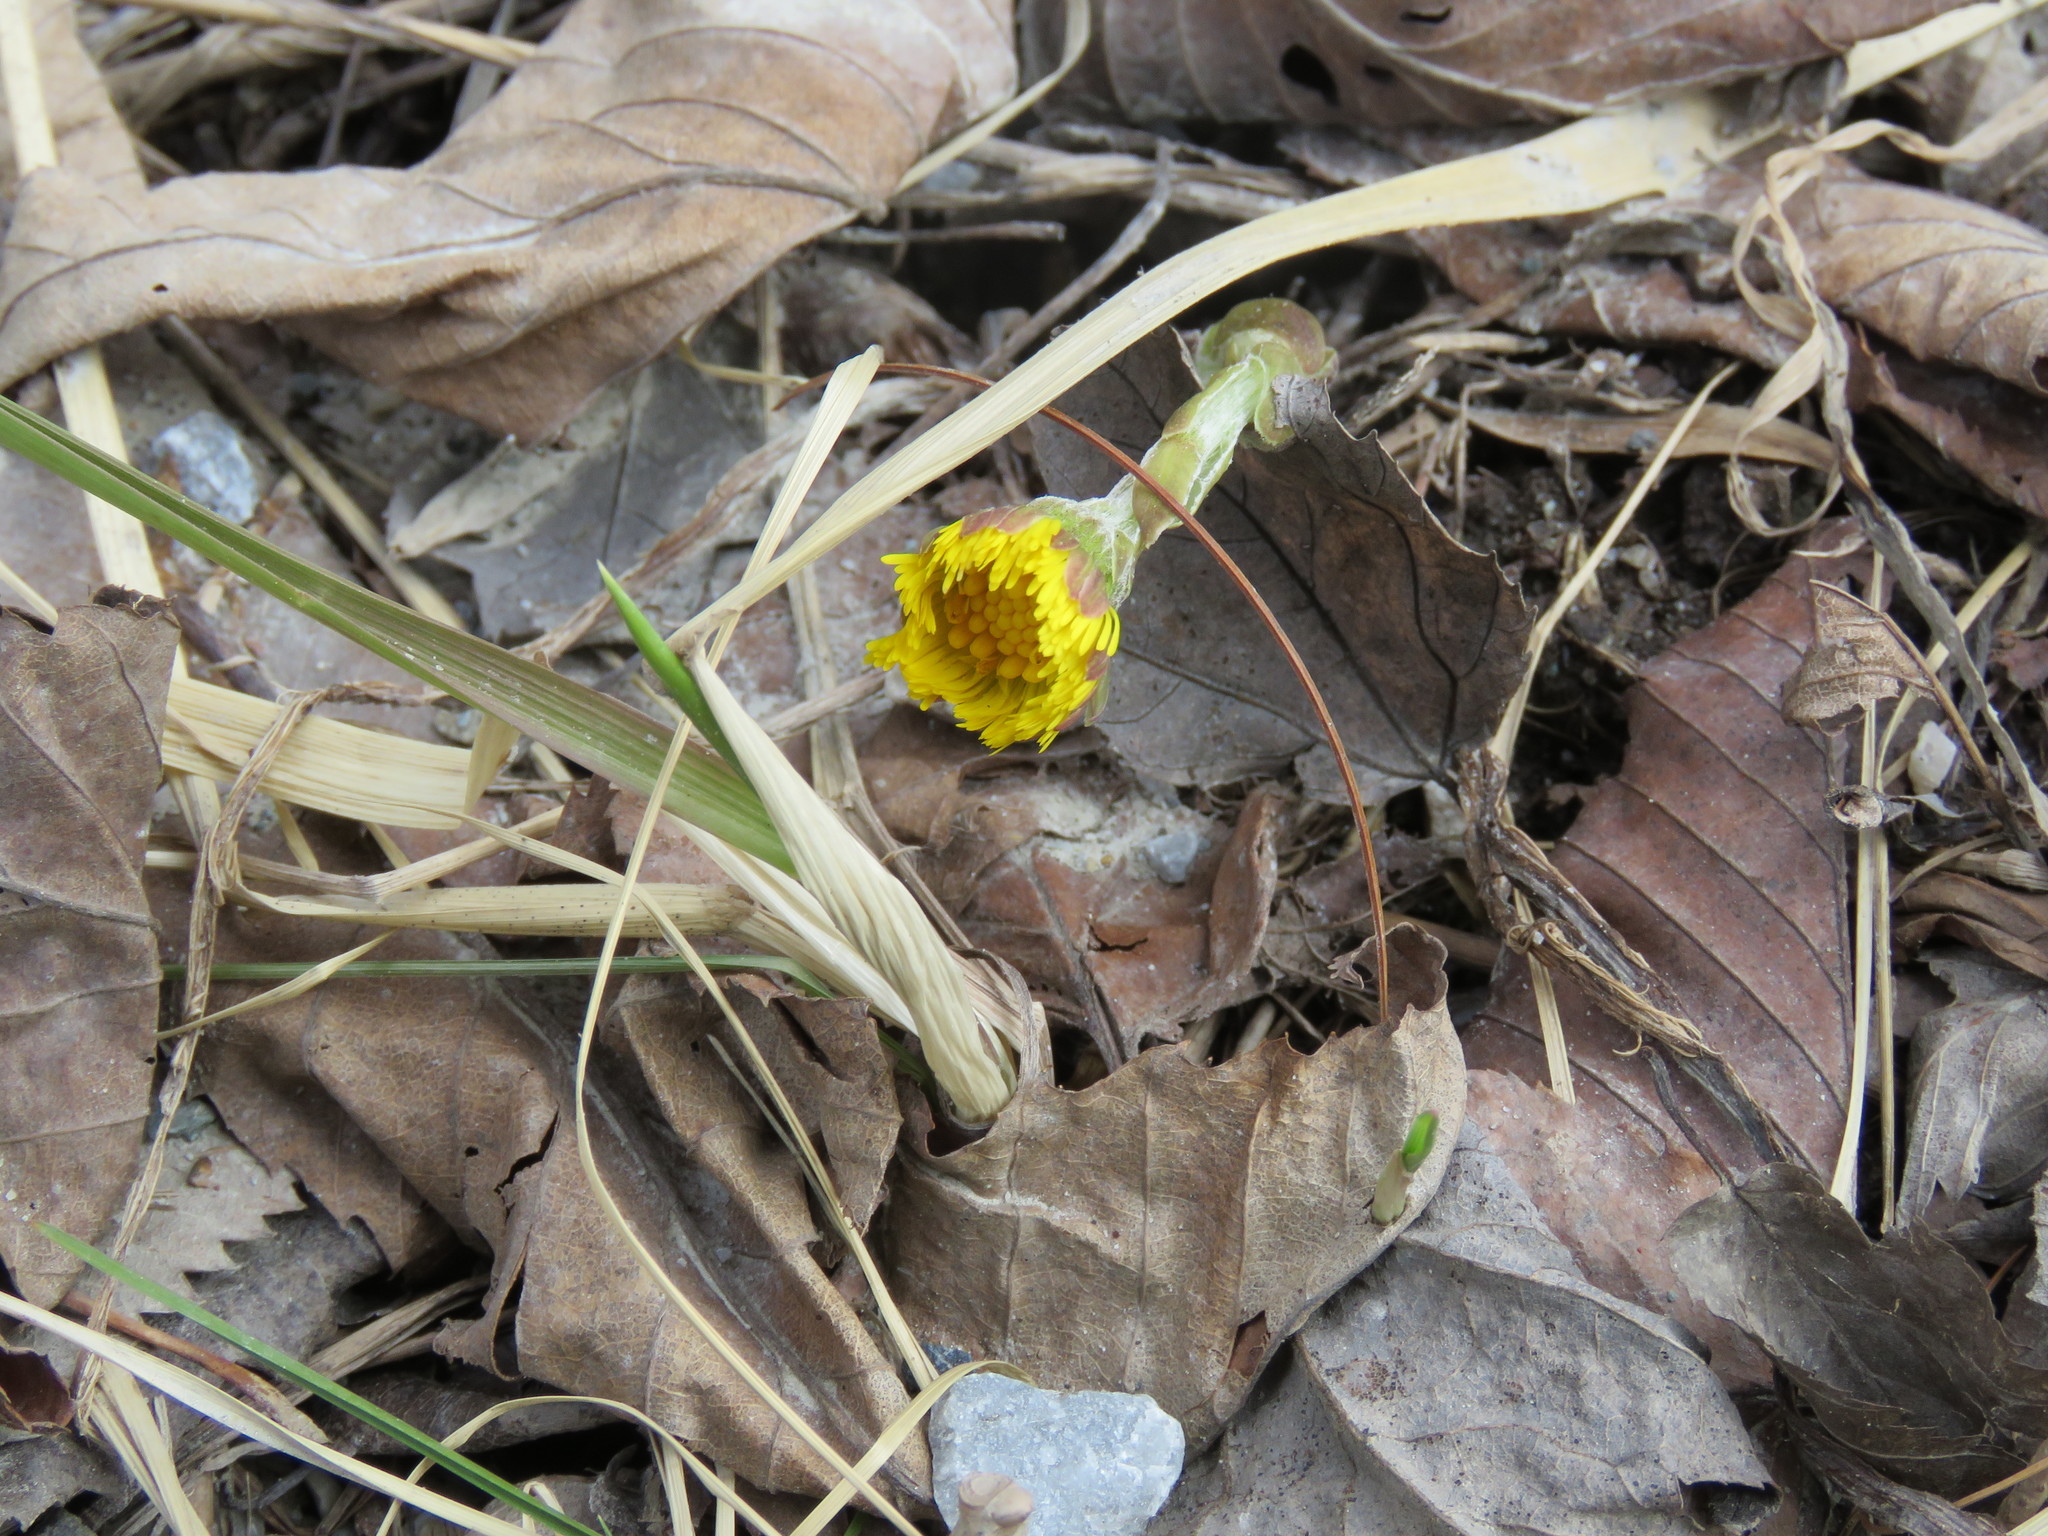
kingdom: Plantae
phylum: Tracheophyta
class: Magnoliopsida
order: Asterales
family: Asteraceae
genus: Tussilago
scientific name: Tussilago farfara
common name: Coltsfoot
